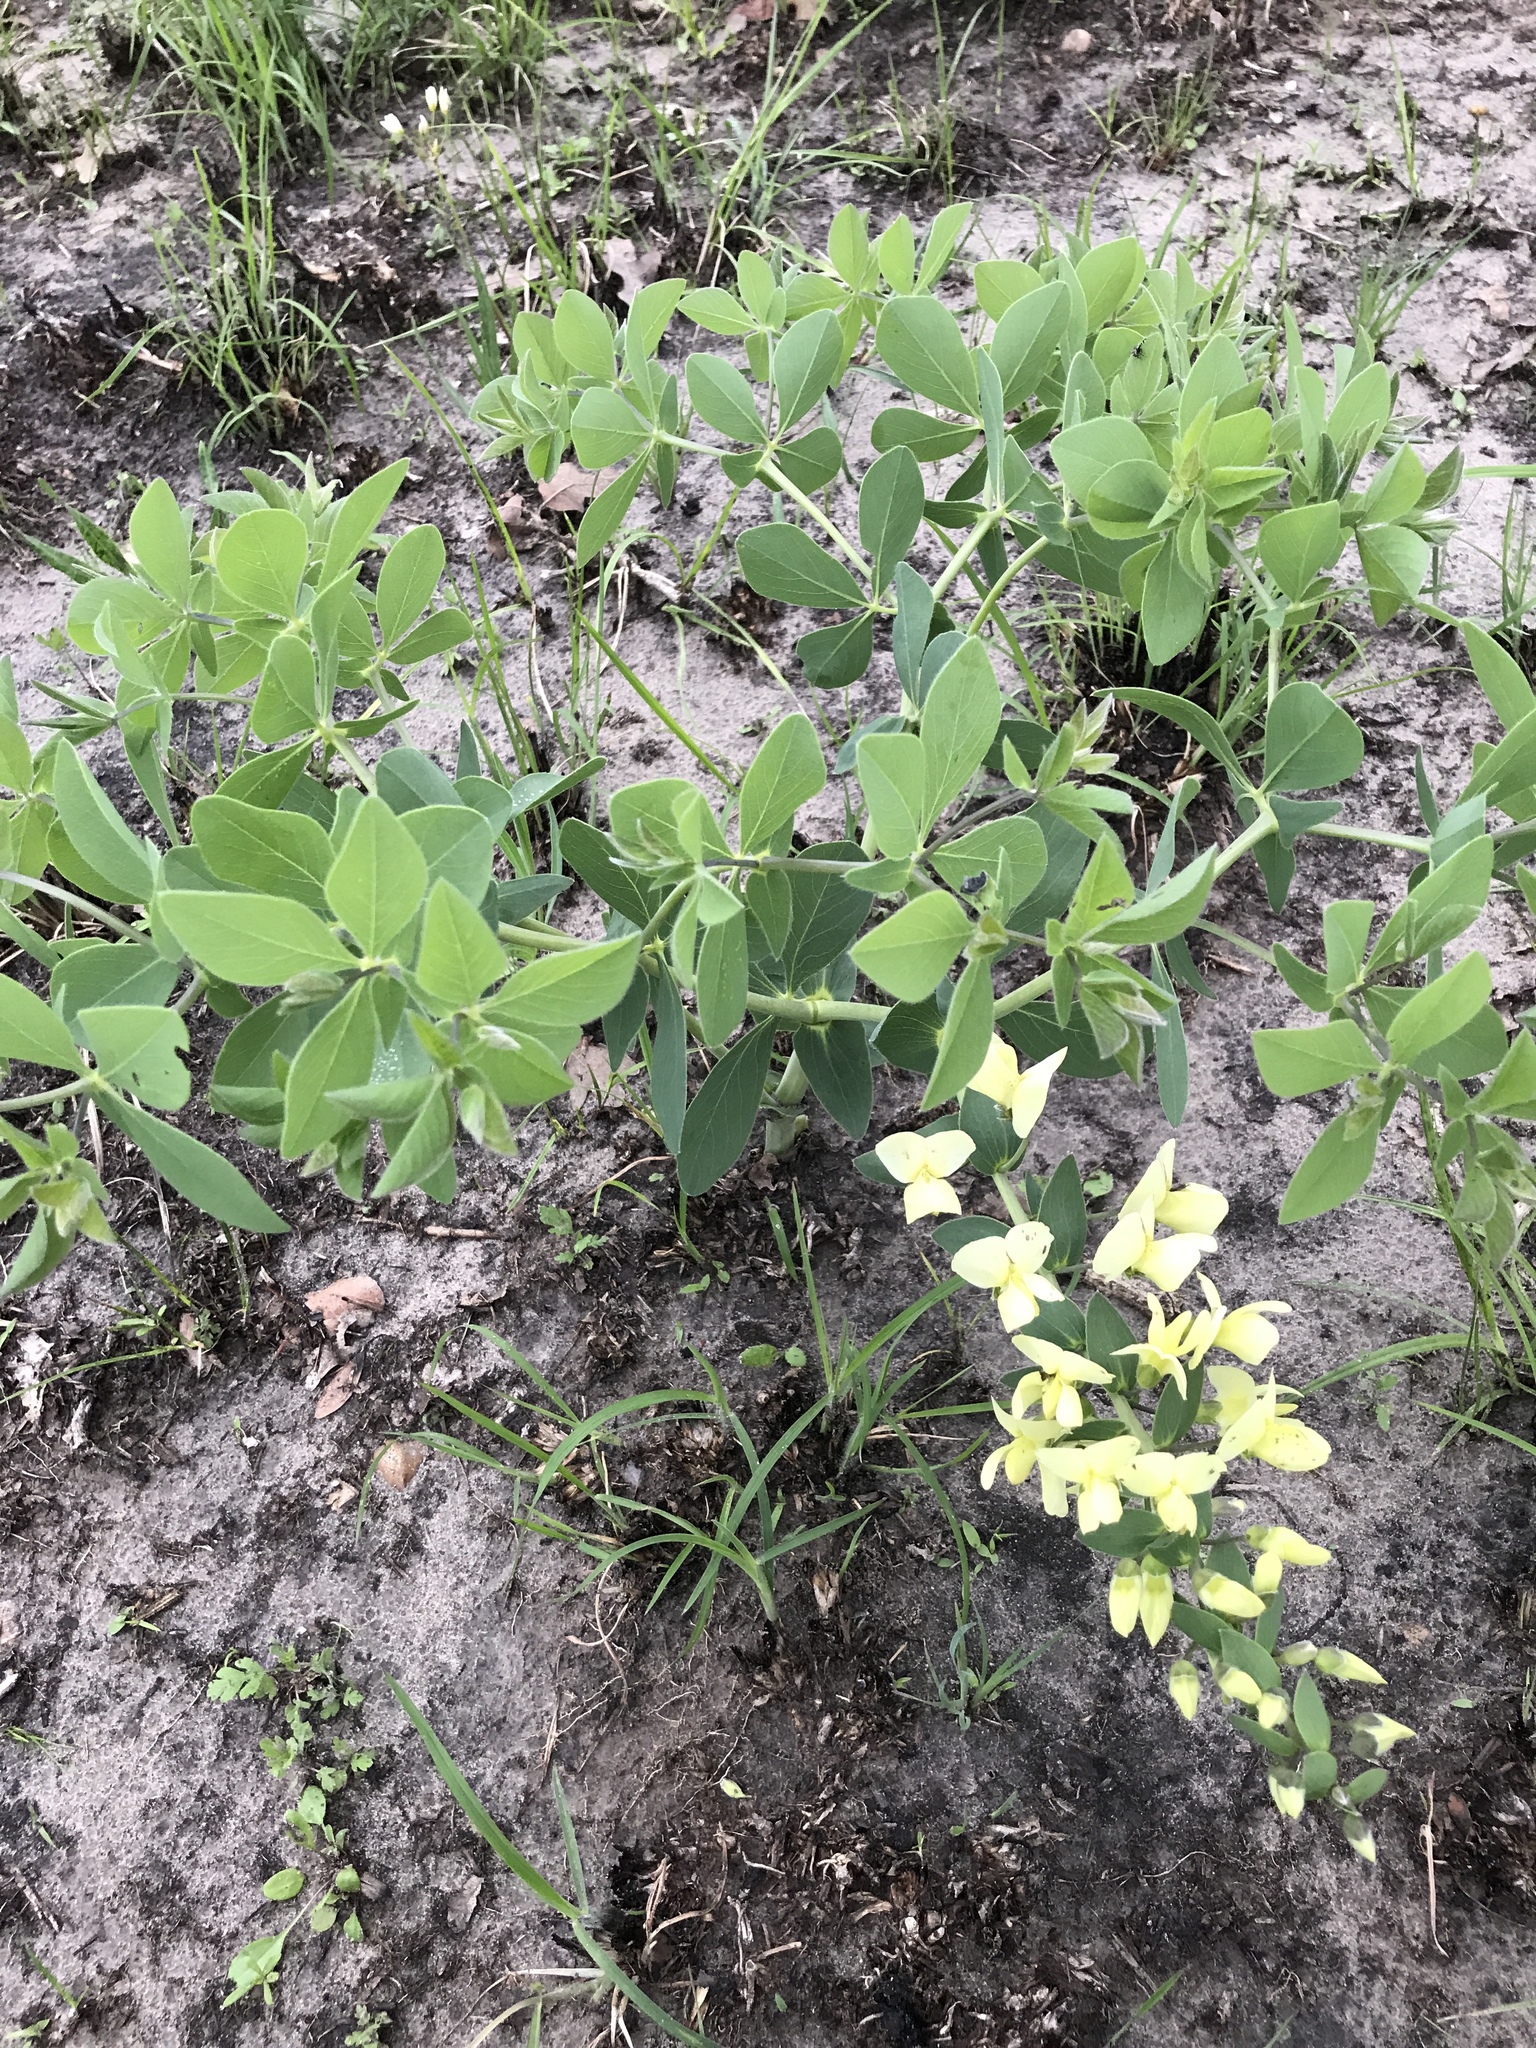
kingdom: Plantae
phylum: Tracheophyta
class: Magnoliopsida
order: Fabales
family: Fabaceae
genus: Baptisia
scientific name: Baptisia bracteata
